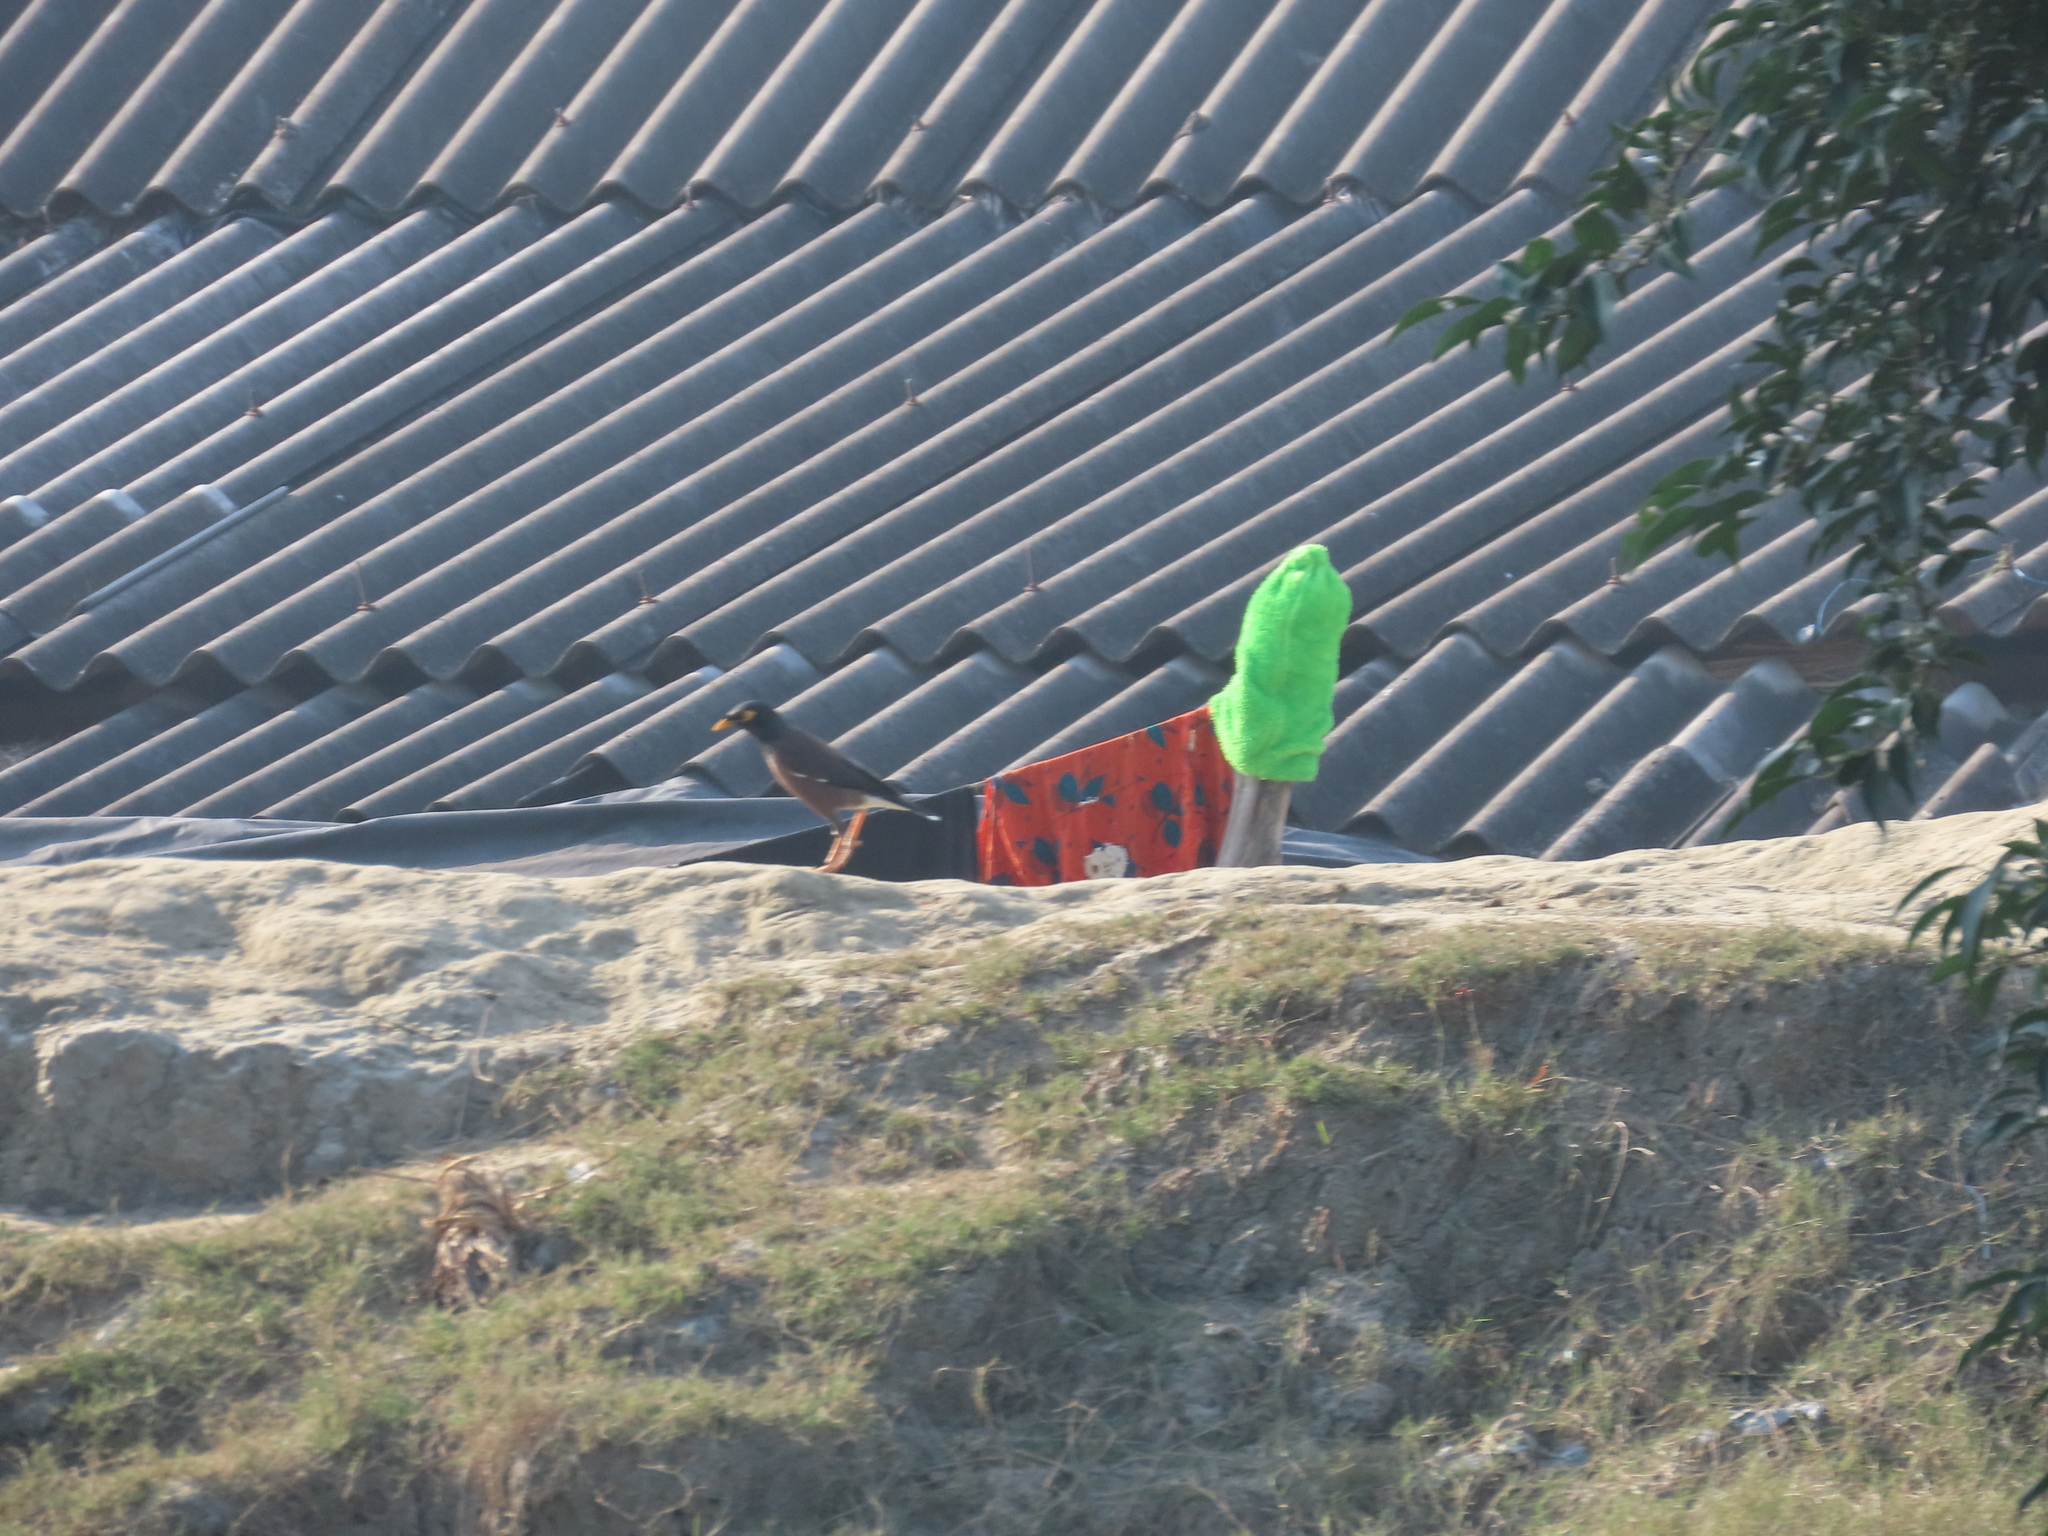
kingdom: Animalia
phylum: Chordata
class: Aves
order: Passeriformes
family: Sturnidae
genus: Acridotheres
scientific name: Acridotheres tristis
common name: Common myna
